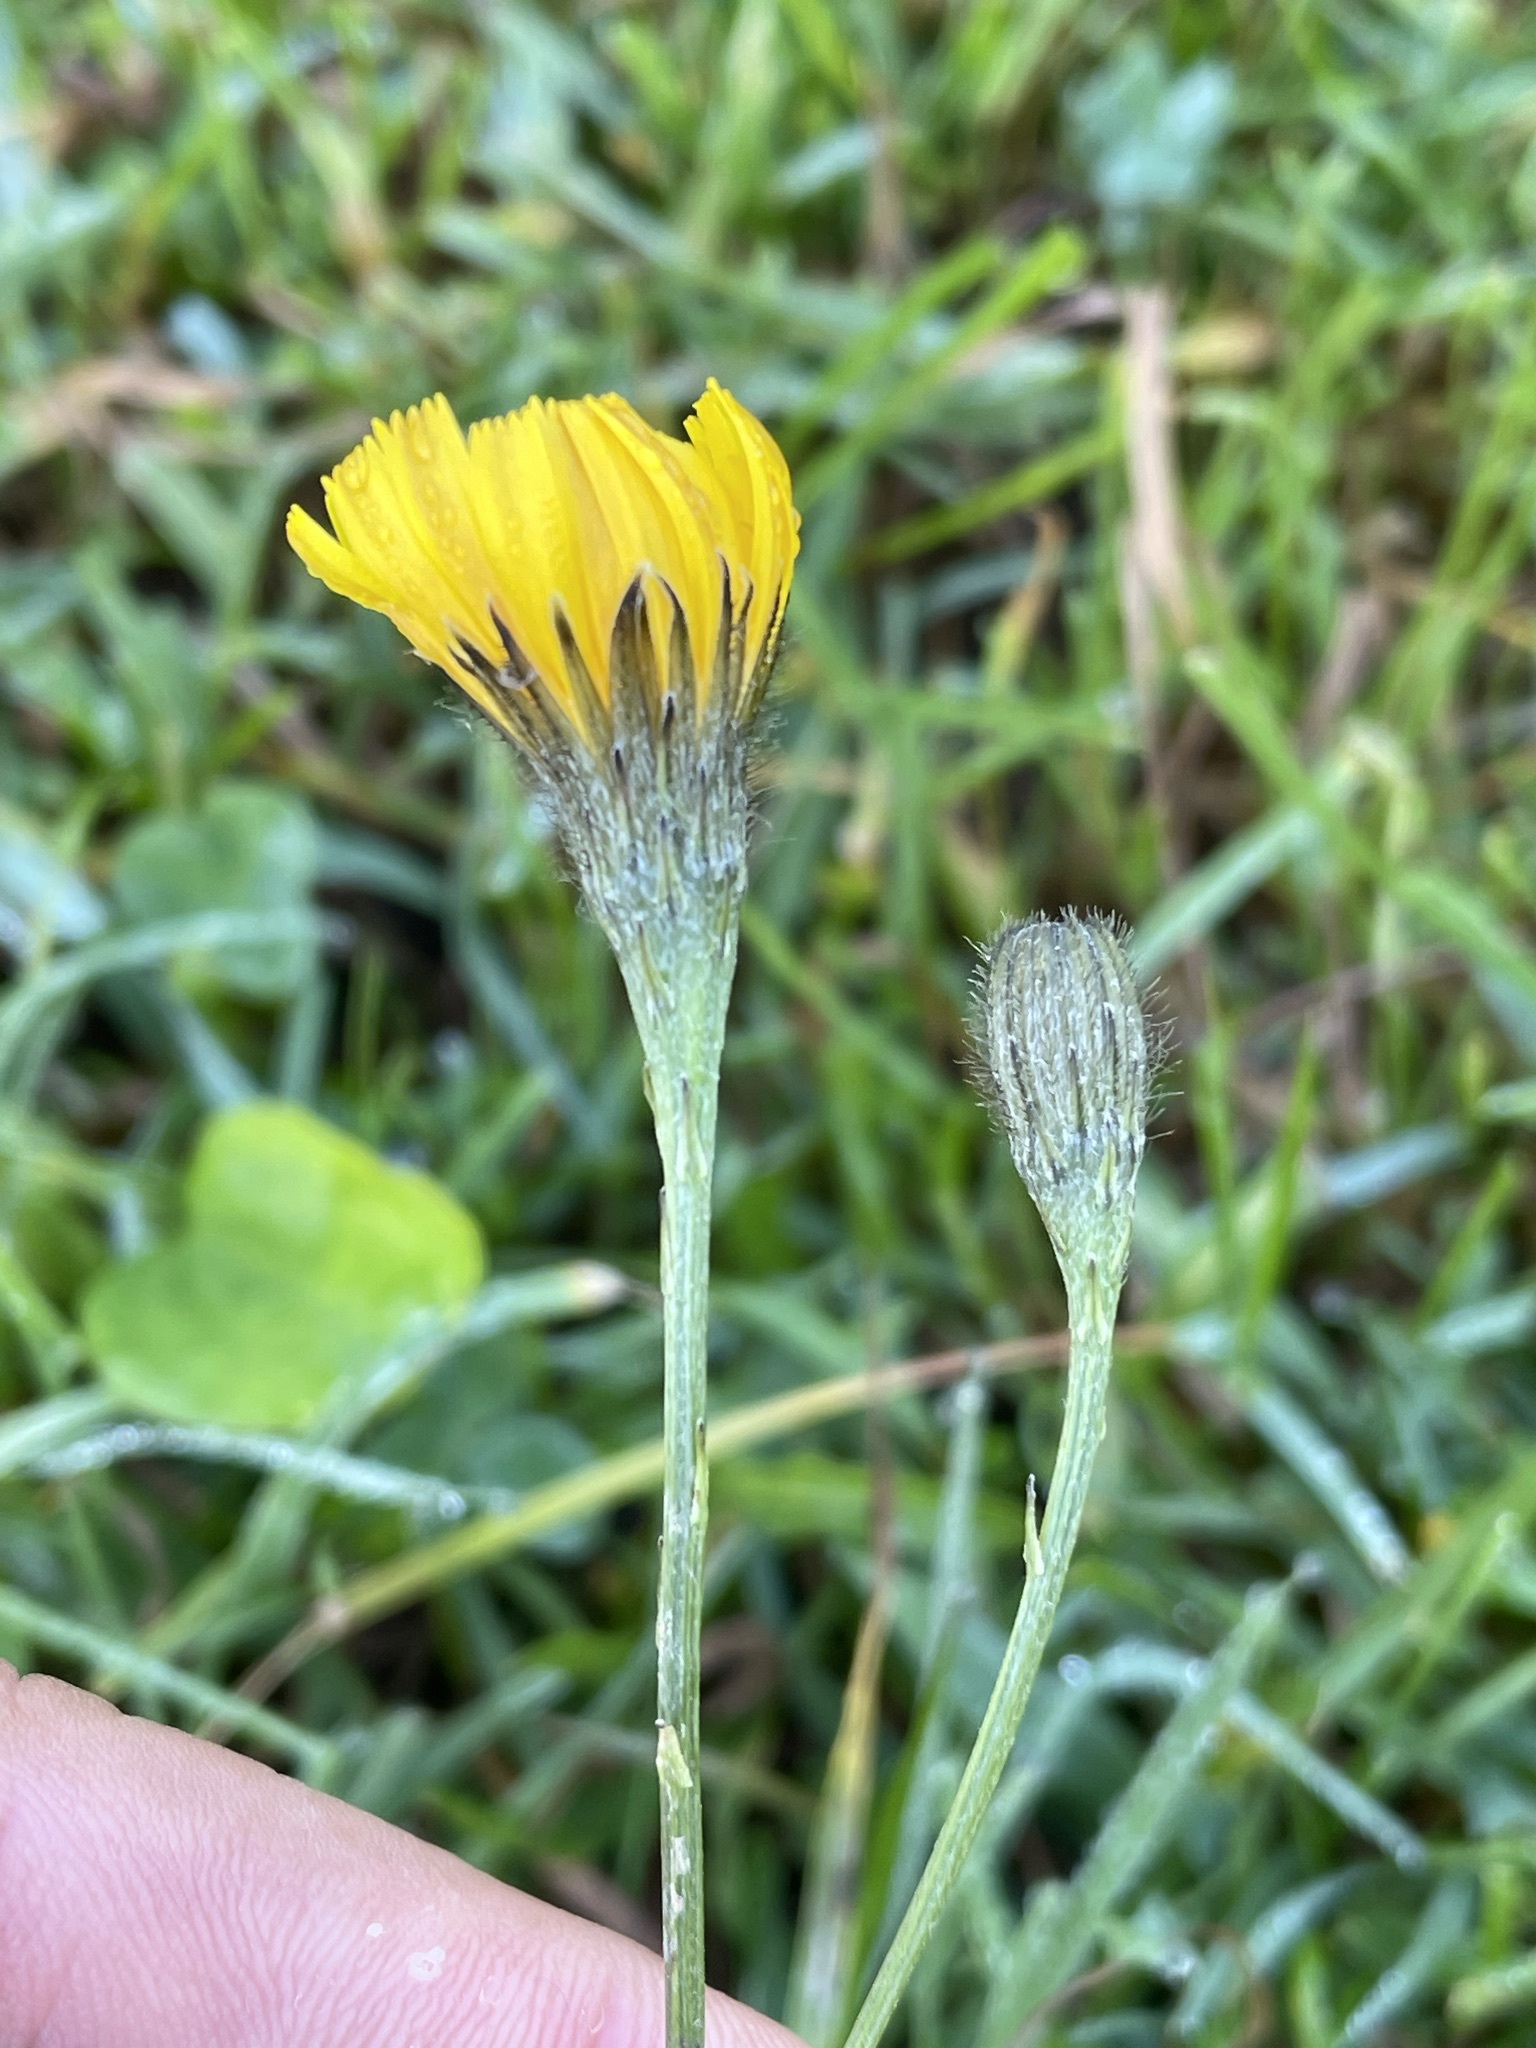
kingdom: Plantae
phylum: Tracheophyta
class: Magnoliopsida
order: Asterales
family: Asteraceae
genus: Scorzoneroides
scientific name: Scorzoneroides autumnalis
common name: Autumn hawkbit
